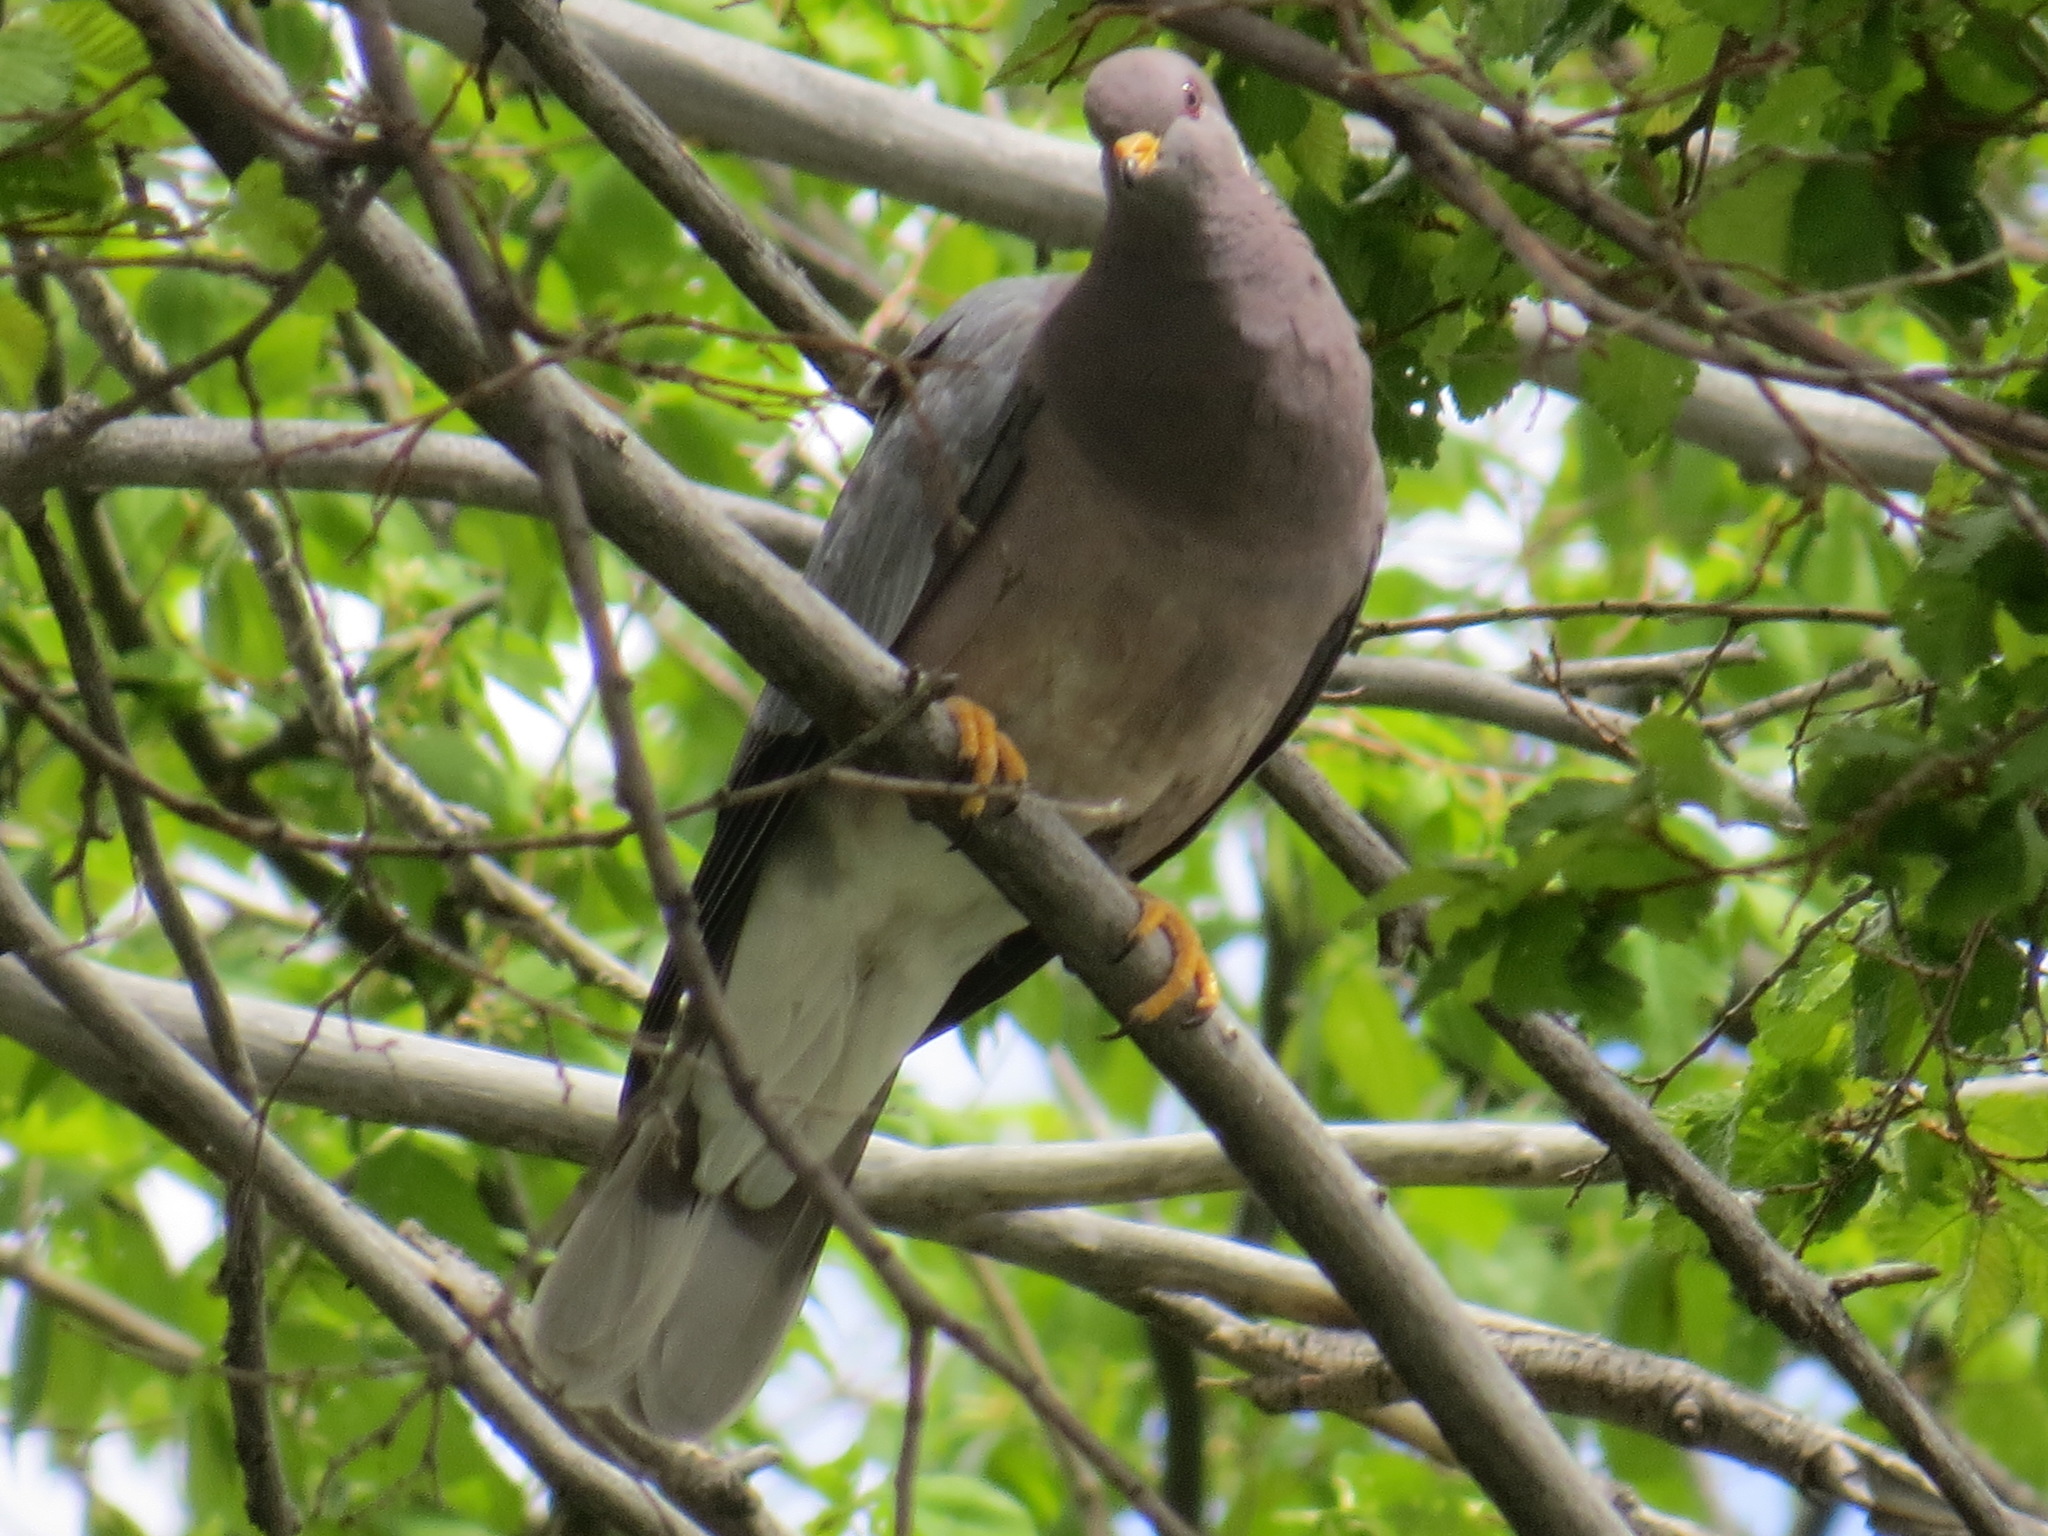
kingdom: Animalia
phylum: Chordata
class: Aves
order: Columbiformes
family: Columbidae
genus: Patagioenas
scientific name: Patagioenas fasciata
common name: Band-tailed pigeon
